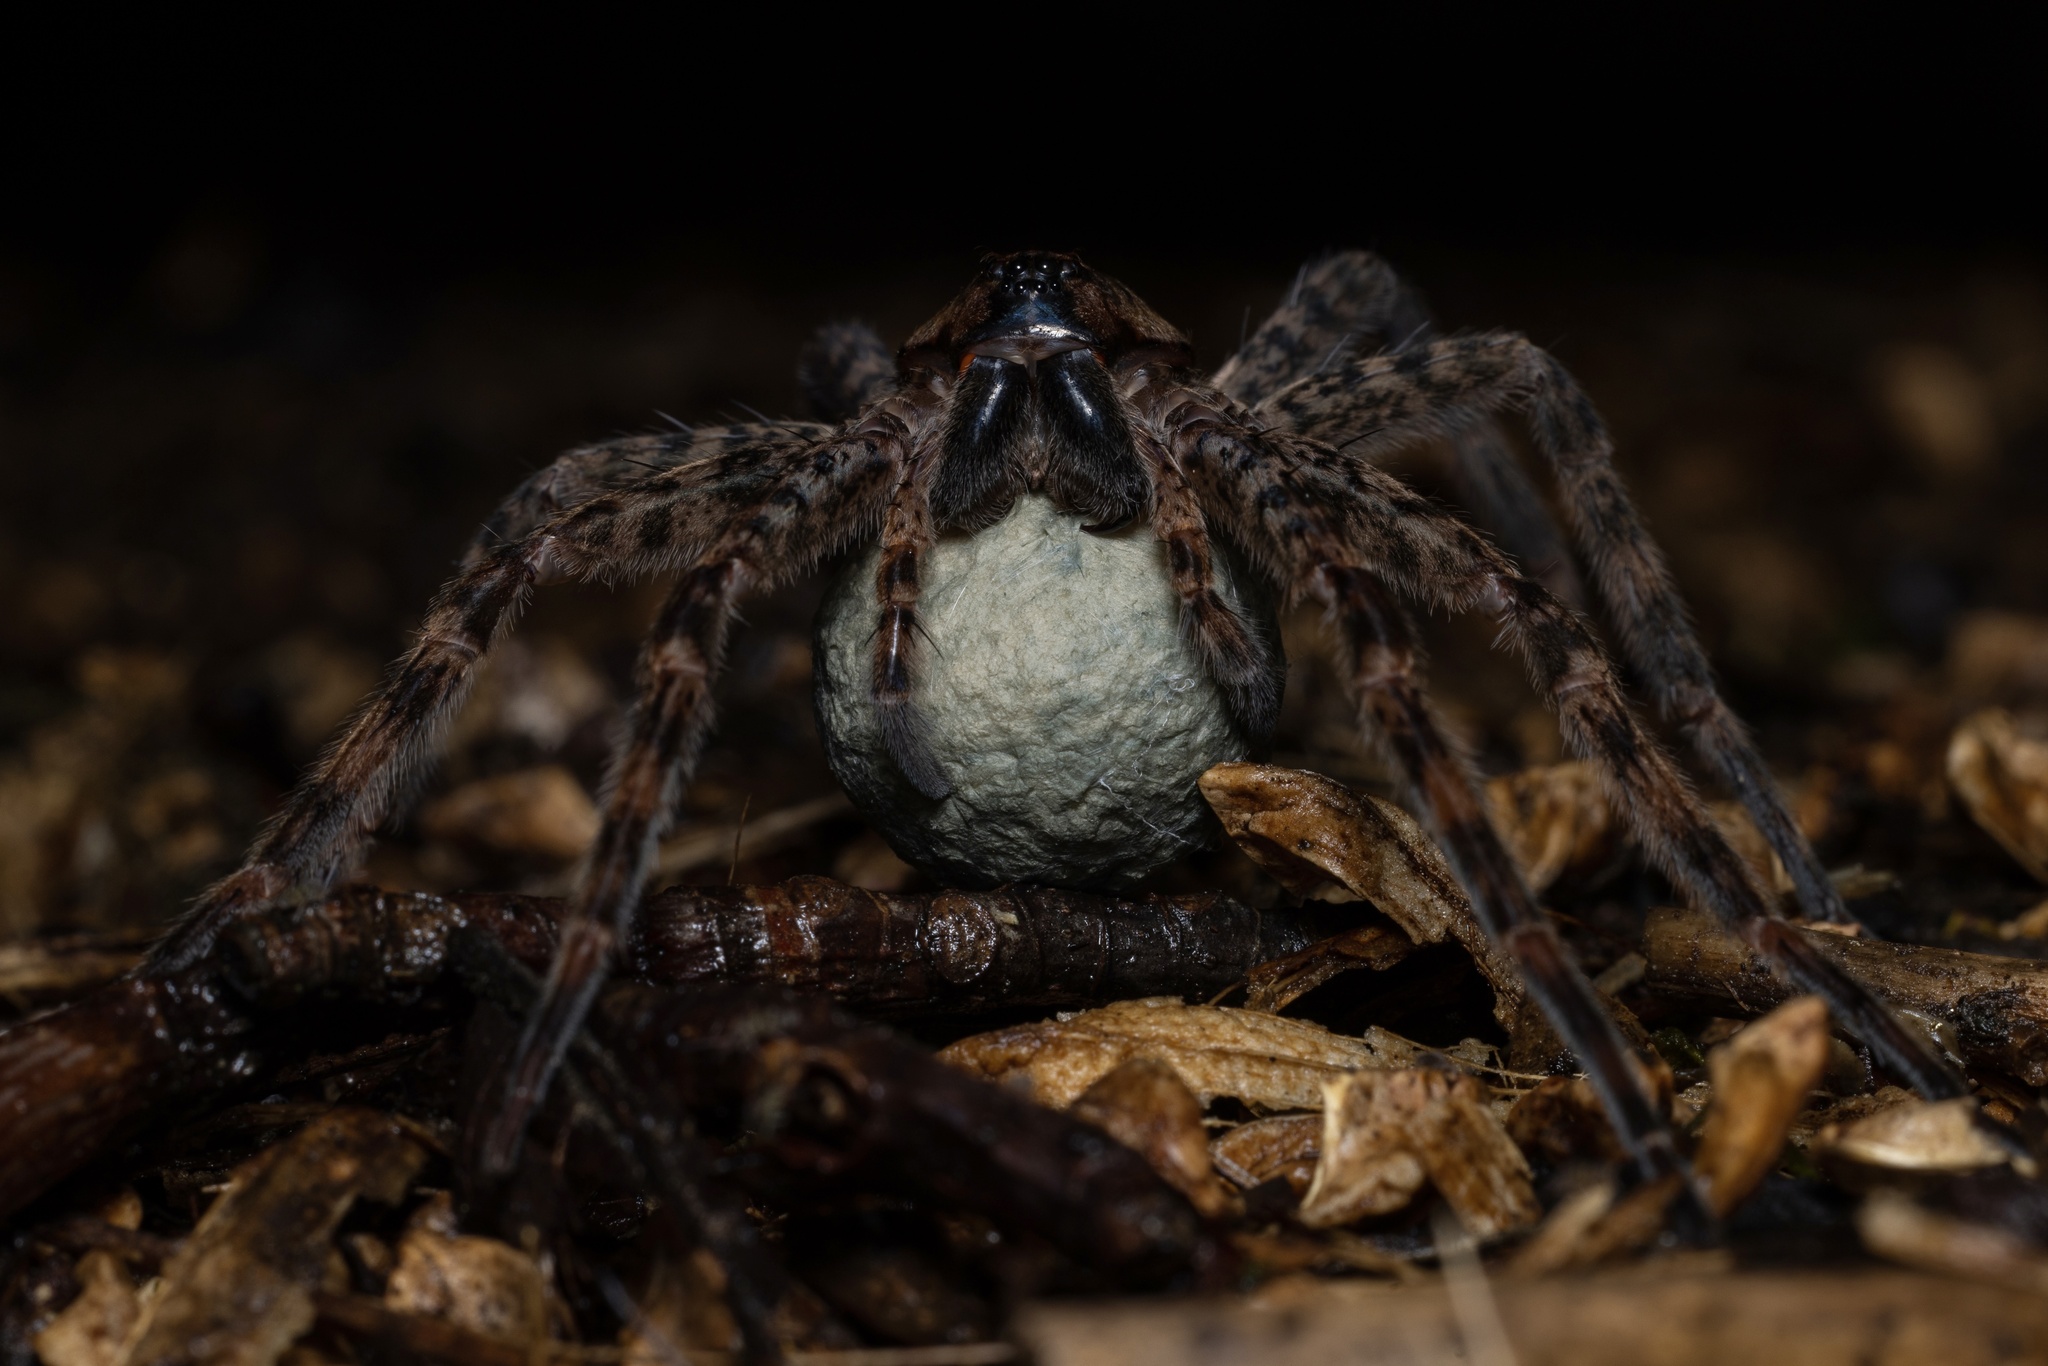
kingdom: Animalia
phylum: Arthropoda
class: Arachnida
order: Araneae
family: Pisauridae
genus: Dolomedes
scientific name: Dolomedes tenebrosus
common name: Dark fishing spider
